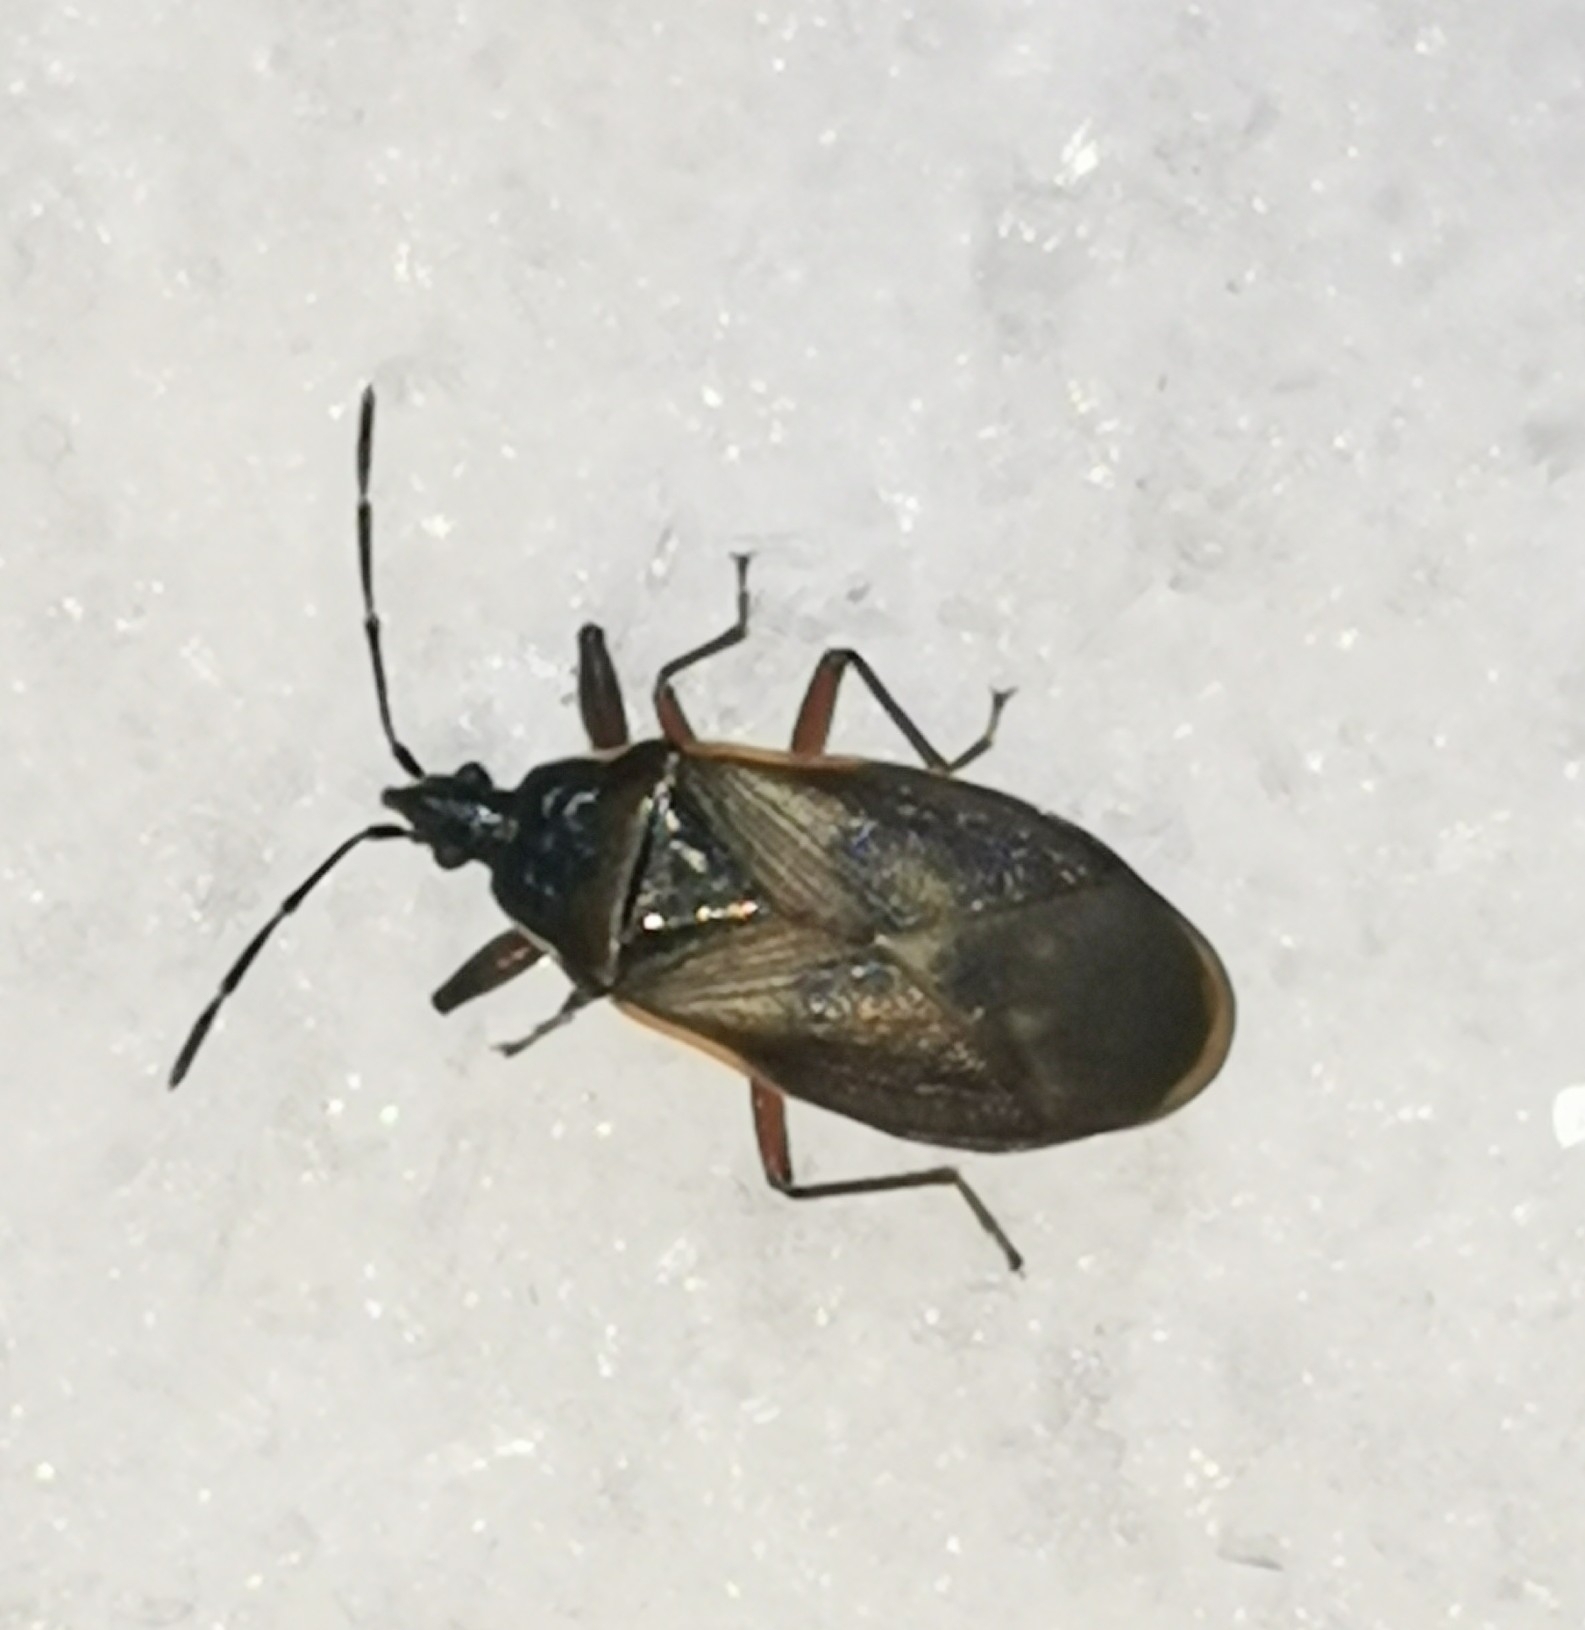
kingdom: Animalia
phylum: Arthropoda
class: Insecta
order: Hemiptera
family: Rhyparochromidae
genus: Gastrodes
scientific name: Gastrodes abietum
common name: Spruce cone bug
